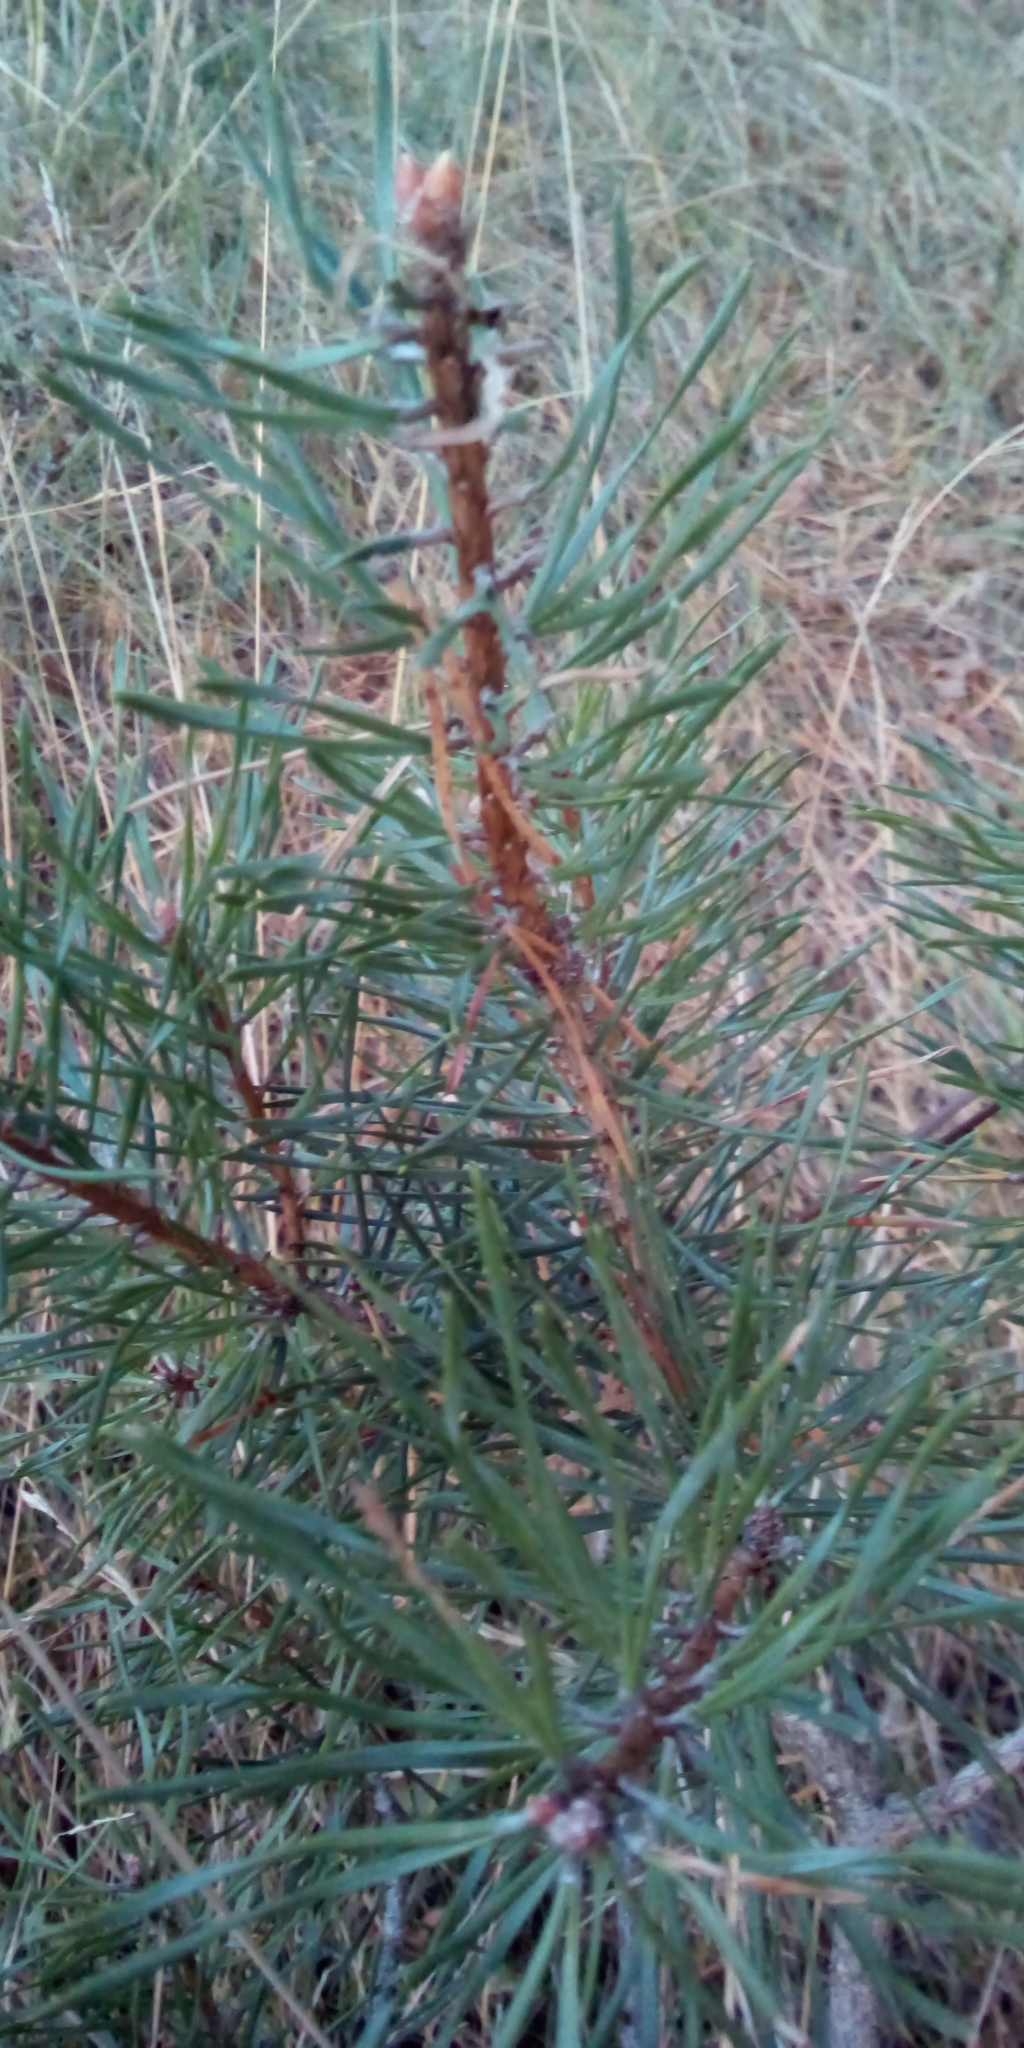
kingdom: Plantae
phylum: Tracheophyta
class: Pinopsida
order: Pinales
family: Pinaceae
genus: Pinus
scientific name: Pinus sylvestris
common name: Scots pine
